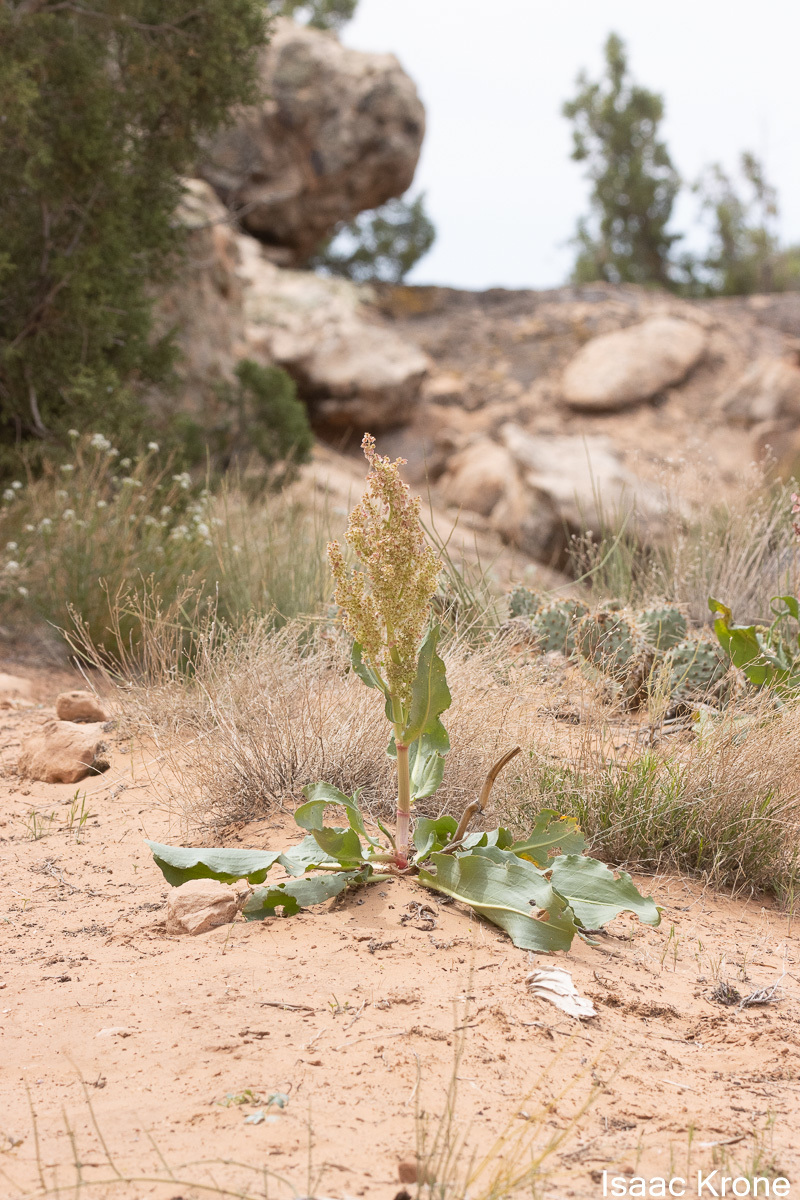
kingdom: Plantae
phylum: Tracheophyta
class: Magnoliopsida
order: Caryophyllales
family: Polygonaceae
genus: Rumex
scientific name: Rumex hymenosepalus
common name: Ganagra
